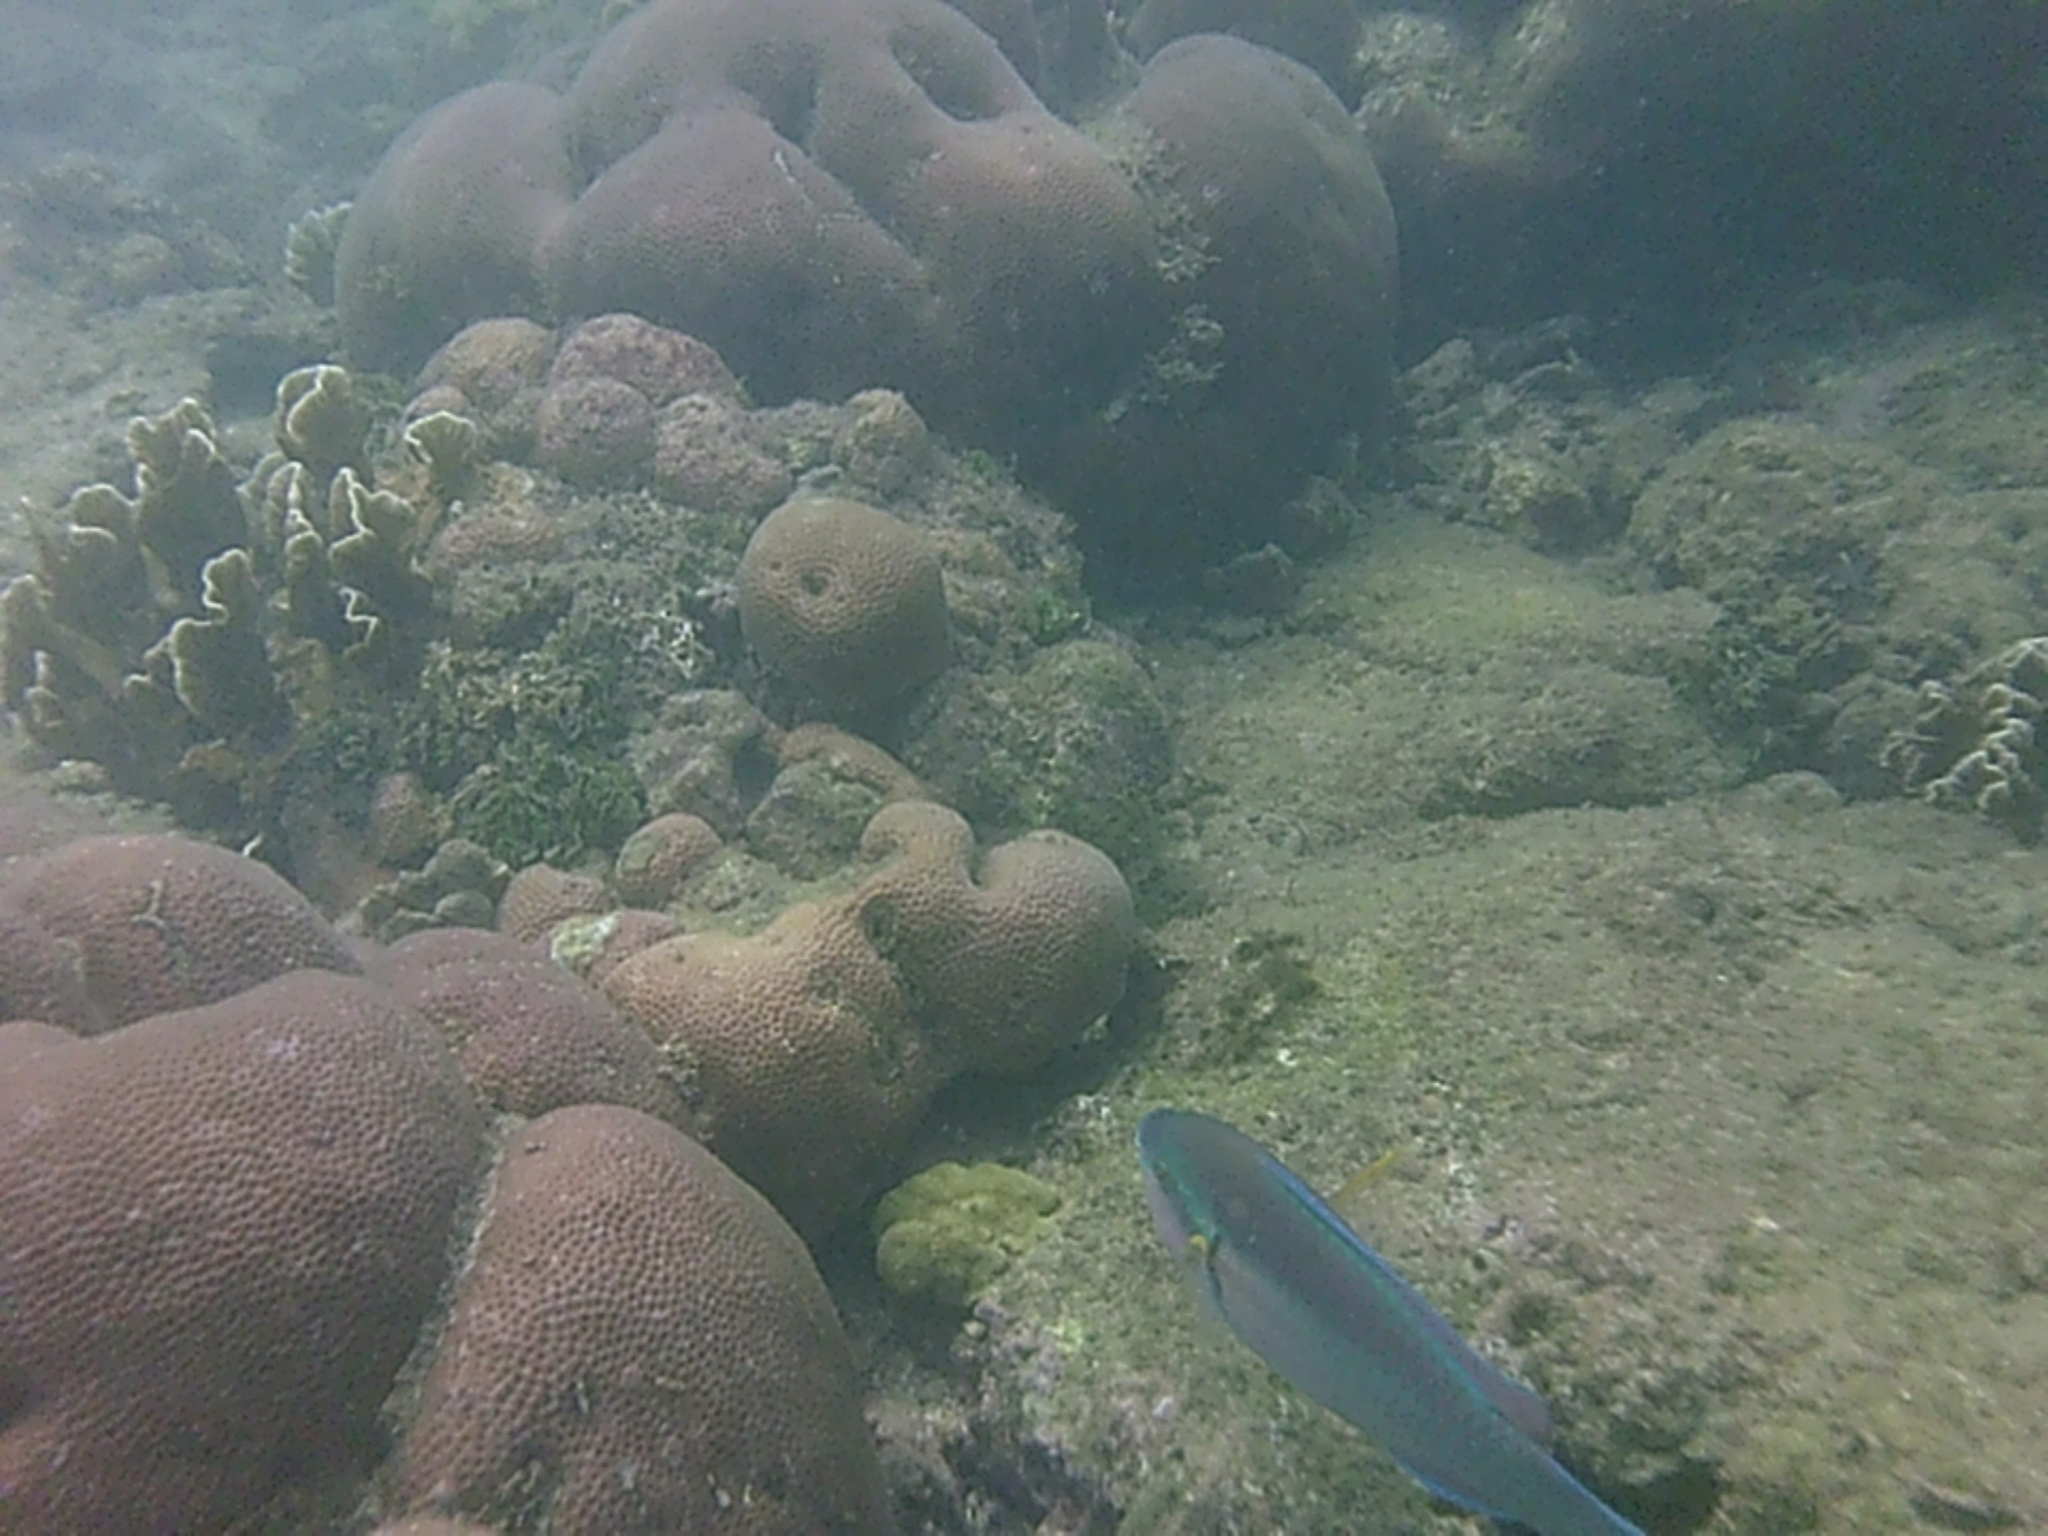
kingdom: Animalia
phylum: Chordata
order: Perciformes
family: Scaridae
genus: Scarus
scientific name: Scarus iseri
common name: Striped parrotfish
